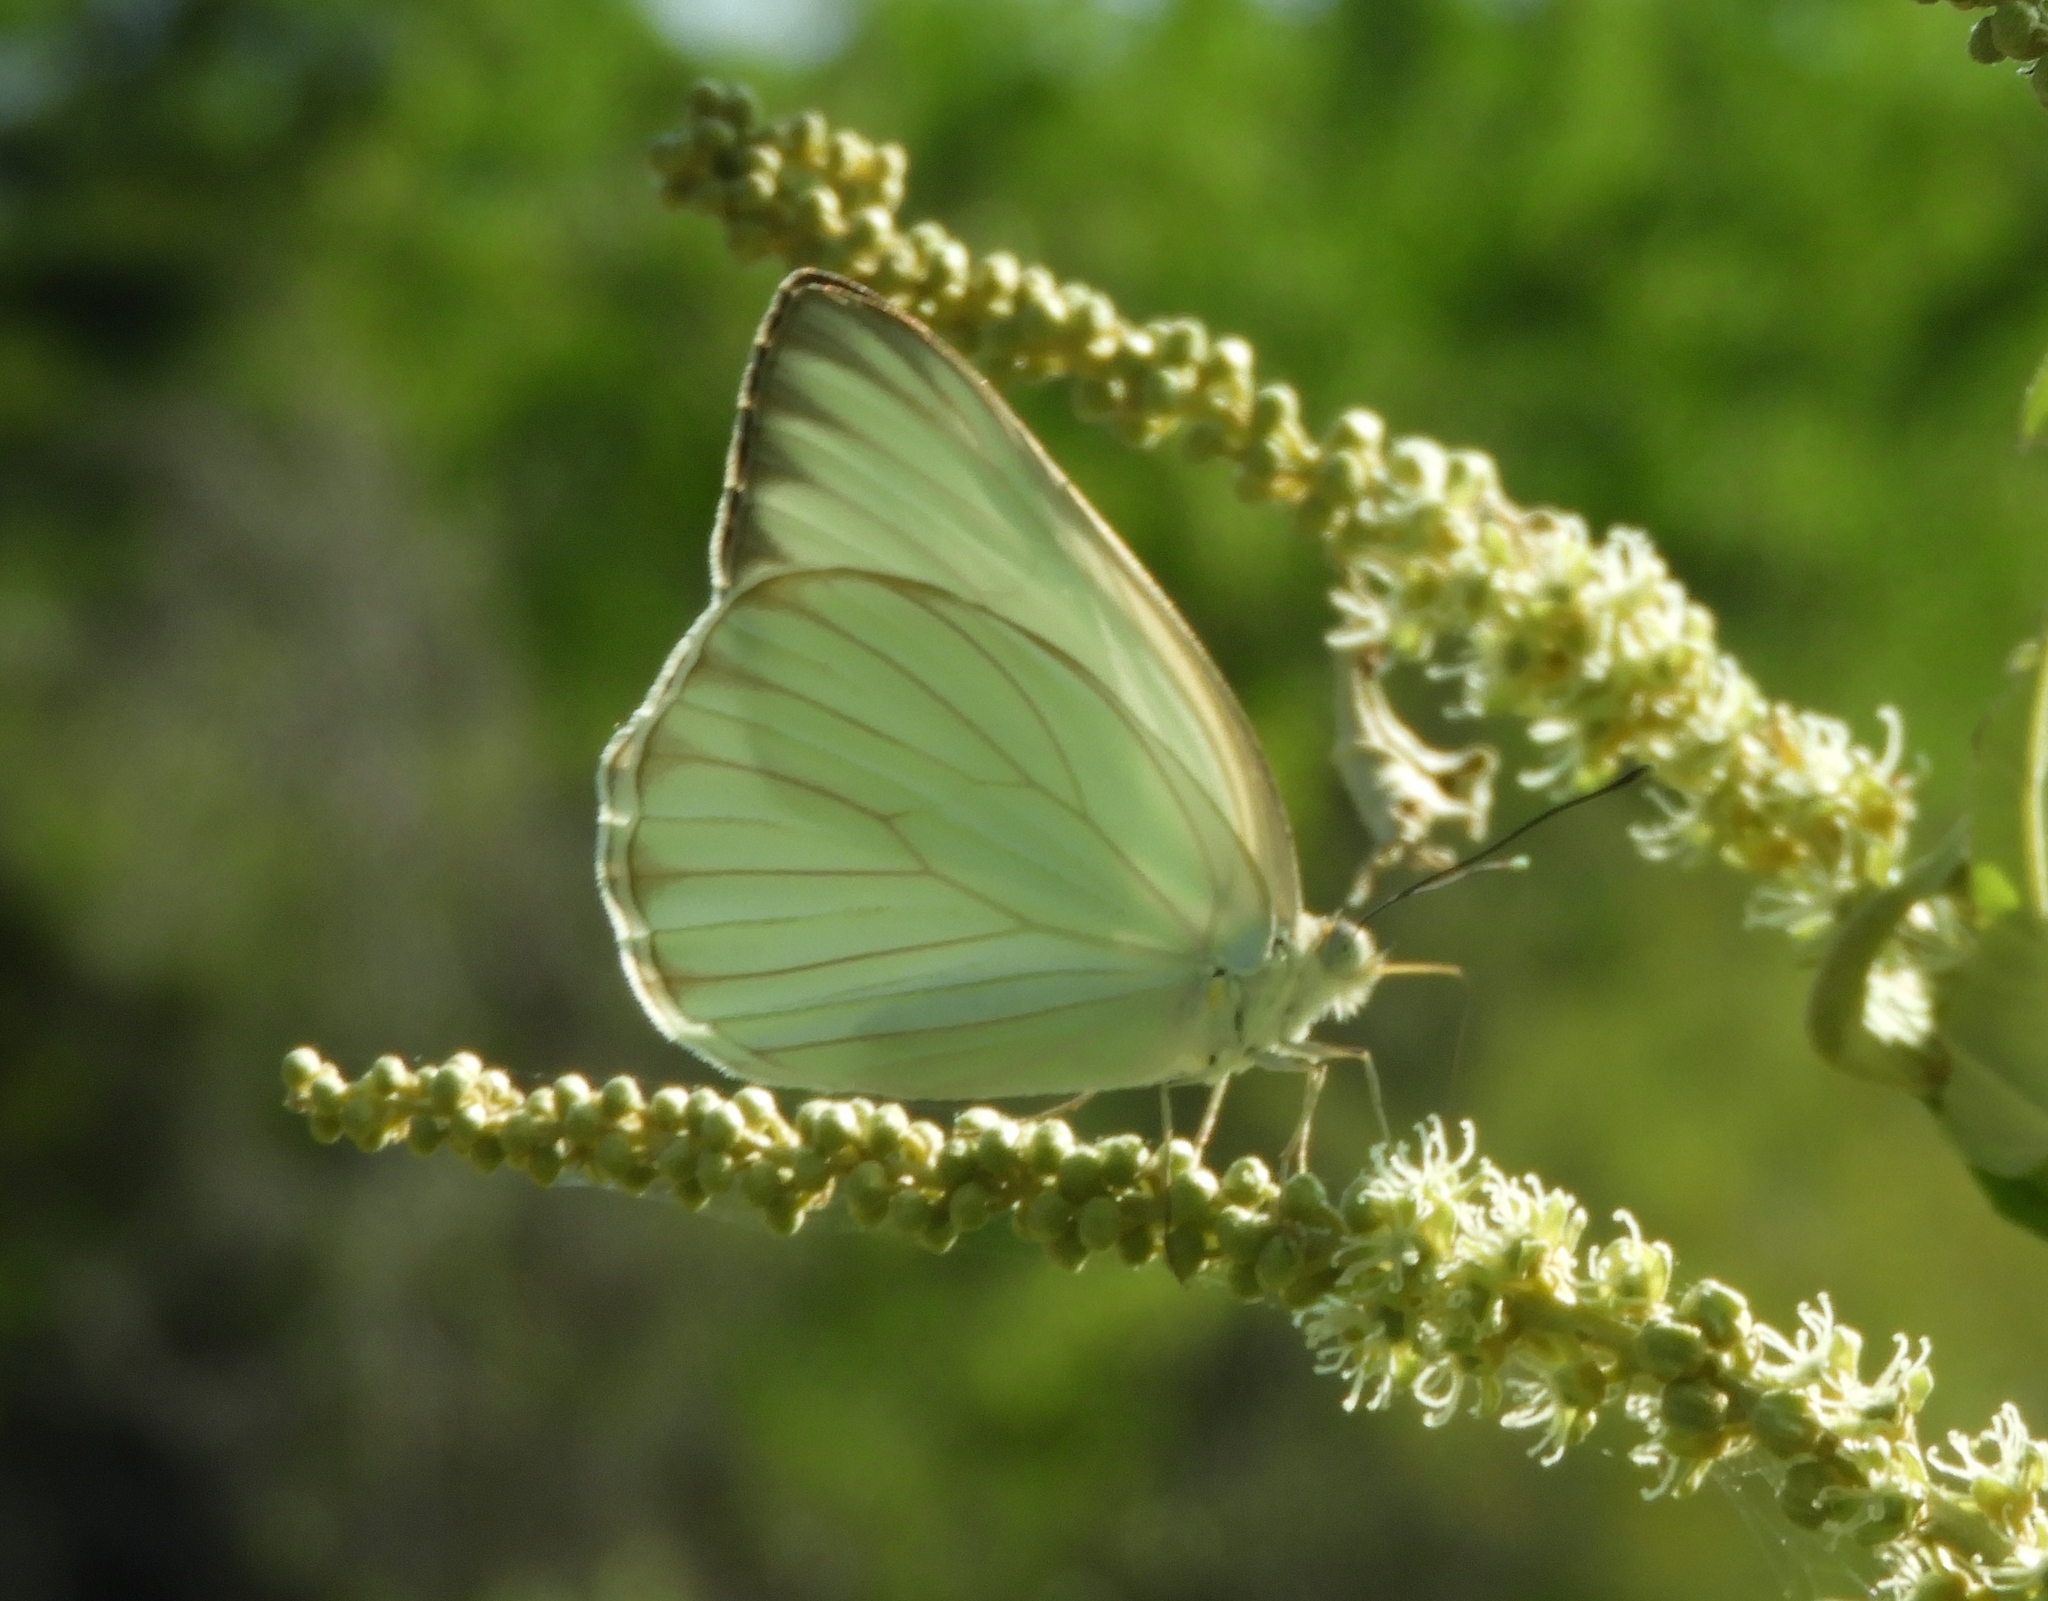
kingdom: Animalia
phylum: Arthropoda
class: Insecta
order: Lepidoptera
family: Pieridae
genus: Ascia
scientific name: Ascia monuste
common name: Great southern white
